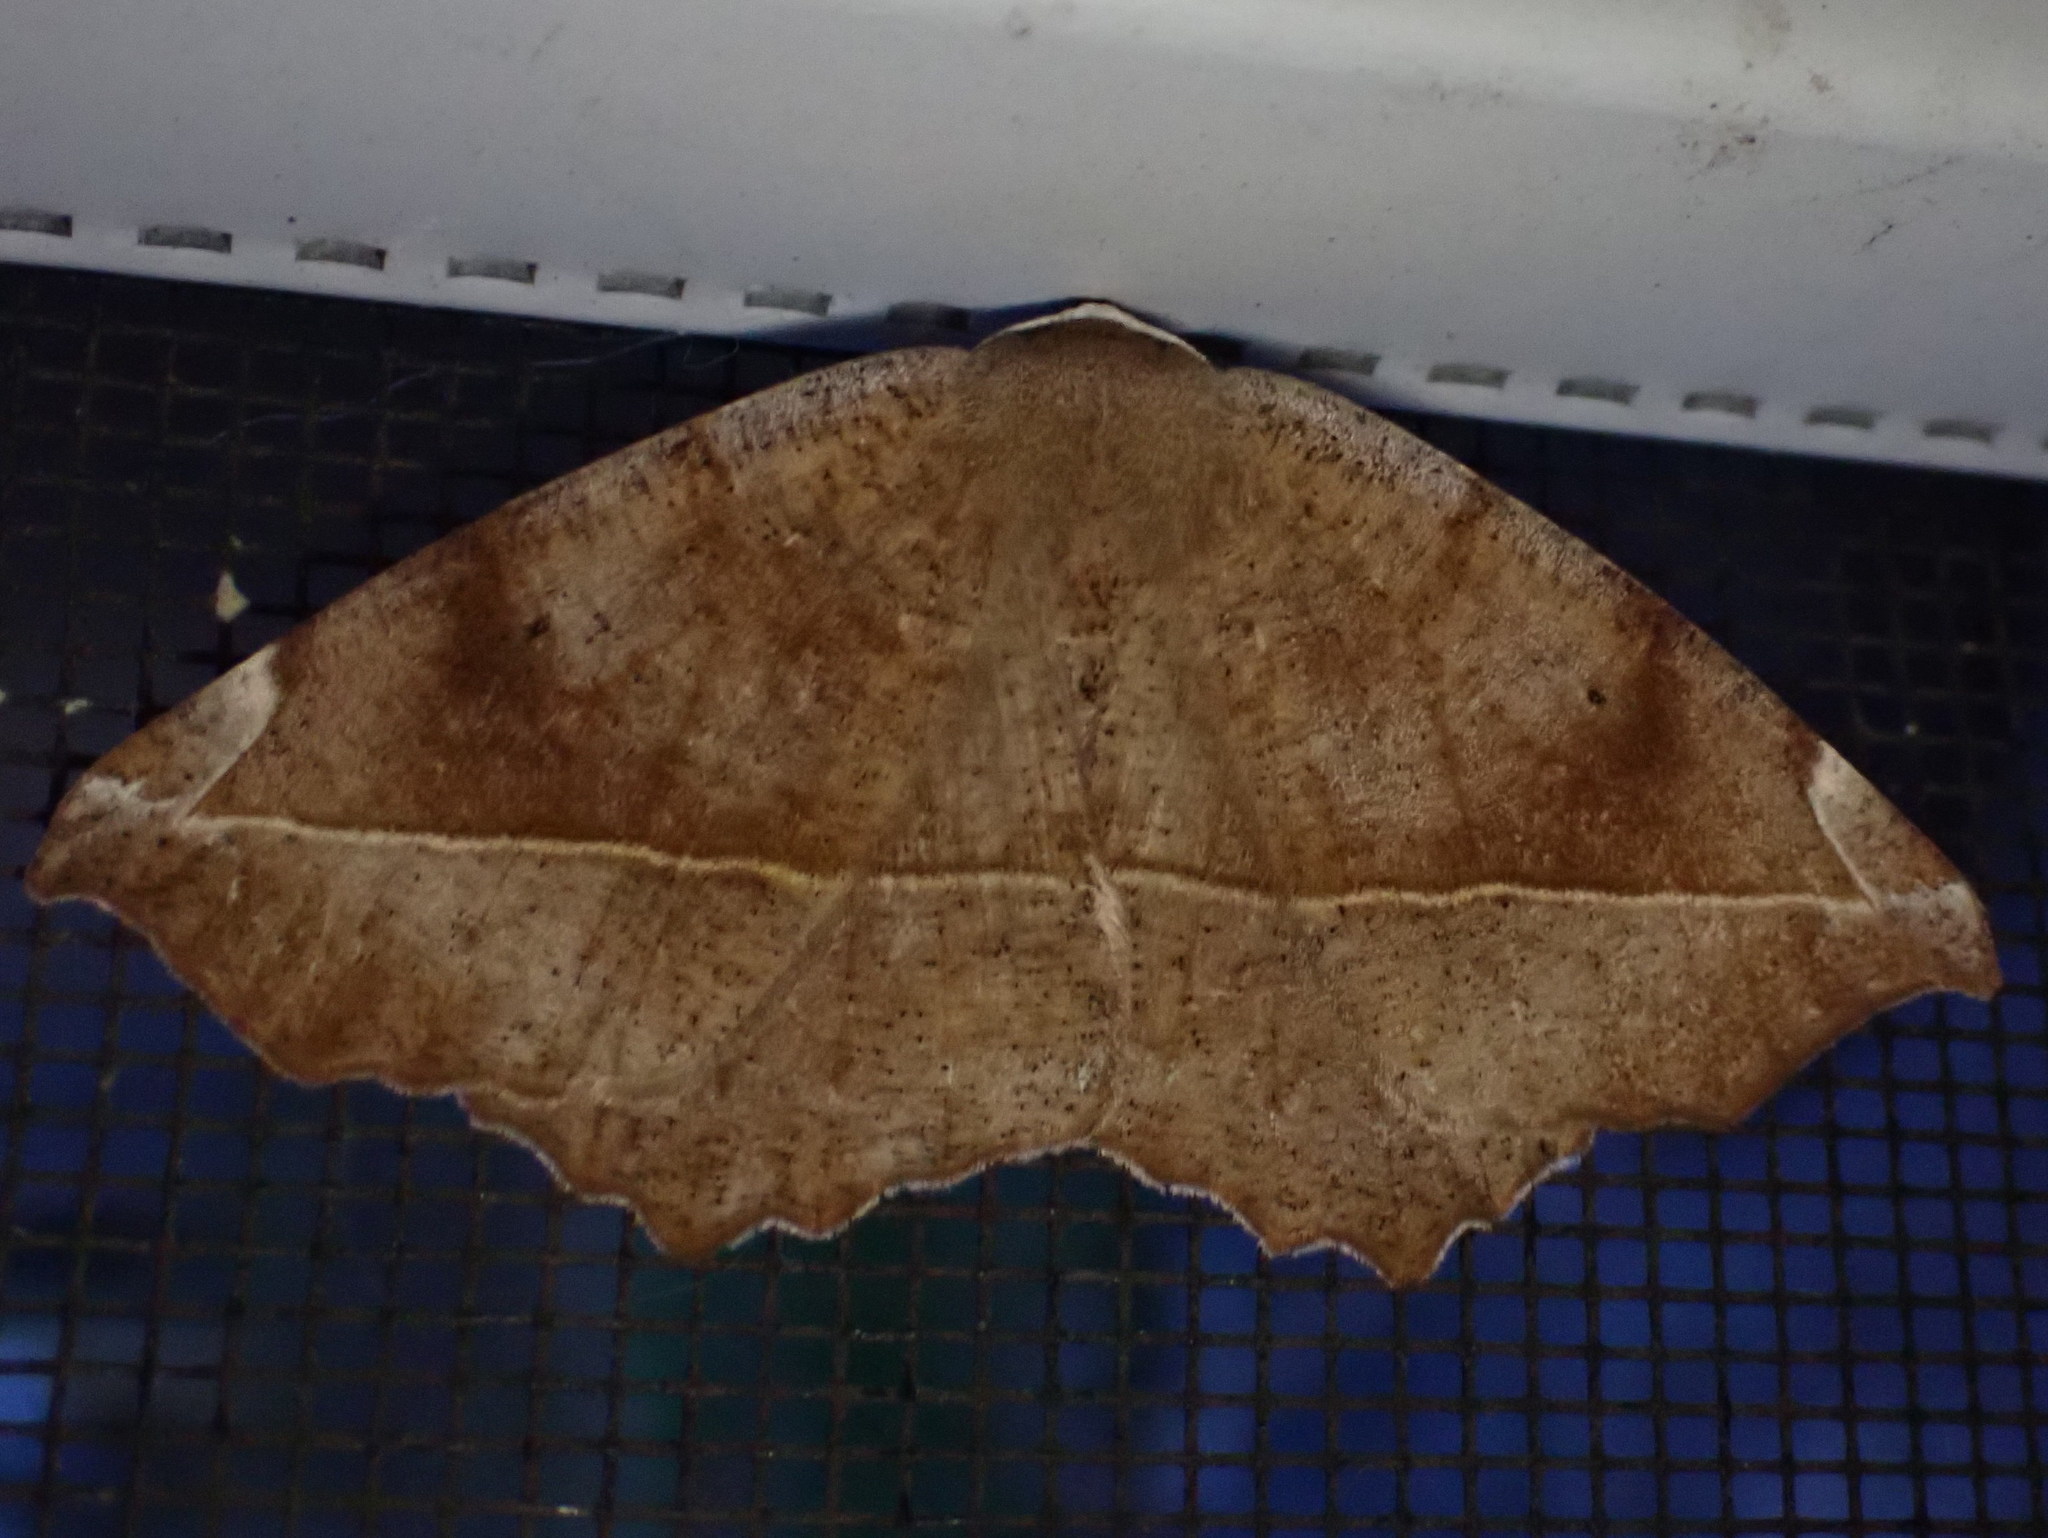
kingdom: Animalia
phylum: Arthropoda
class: Insecta
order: Lepidoptera
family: Geometridae
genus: Eutrapela
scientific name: Eutrapela clemataria
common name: Curved-toothed geometer
